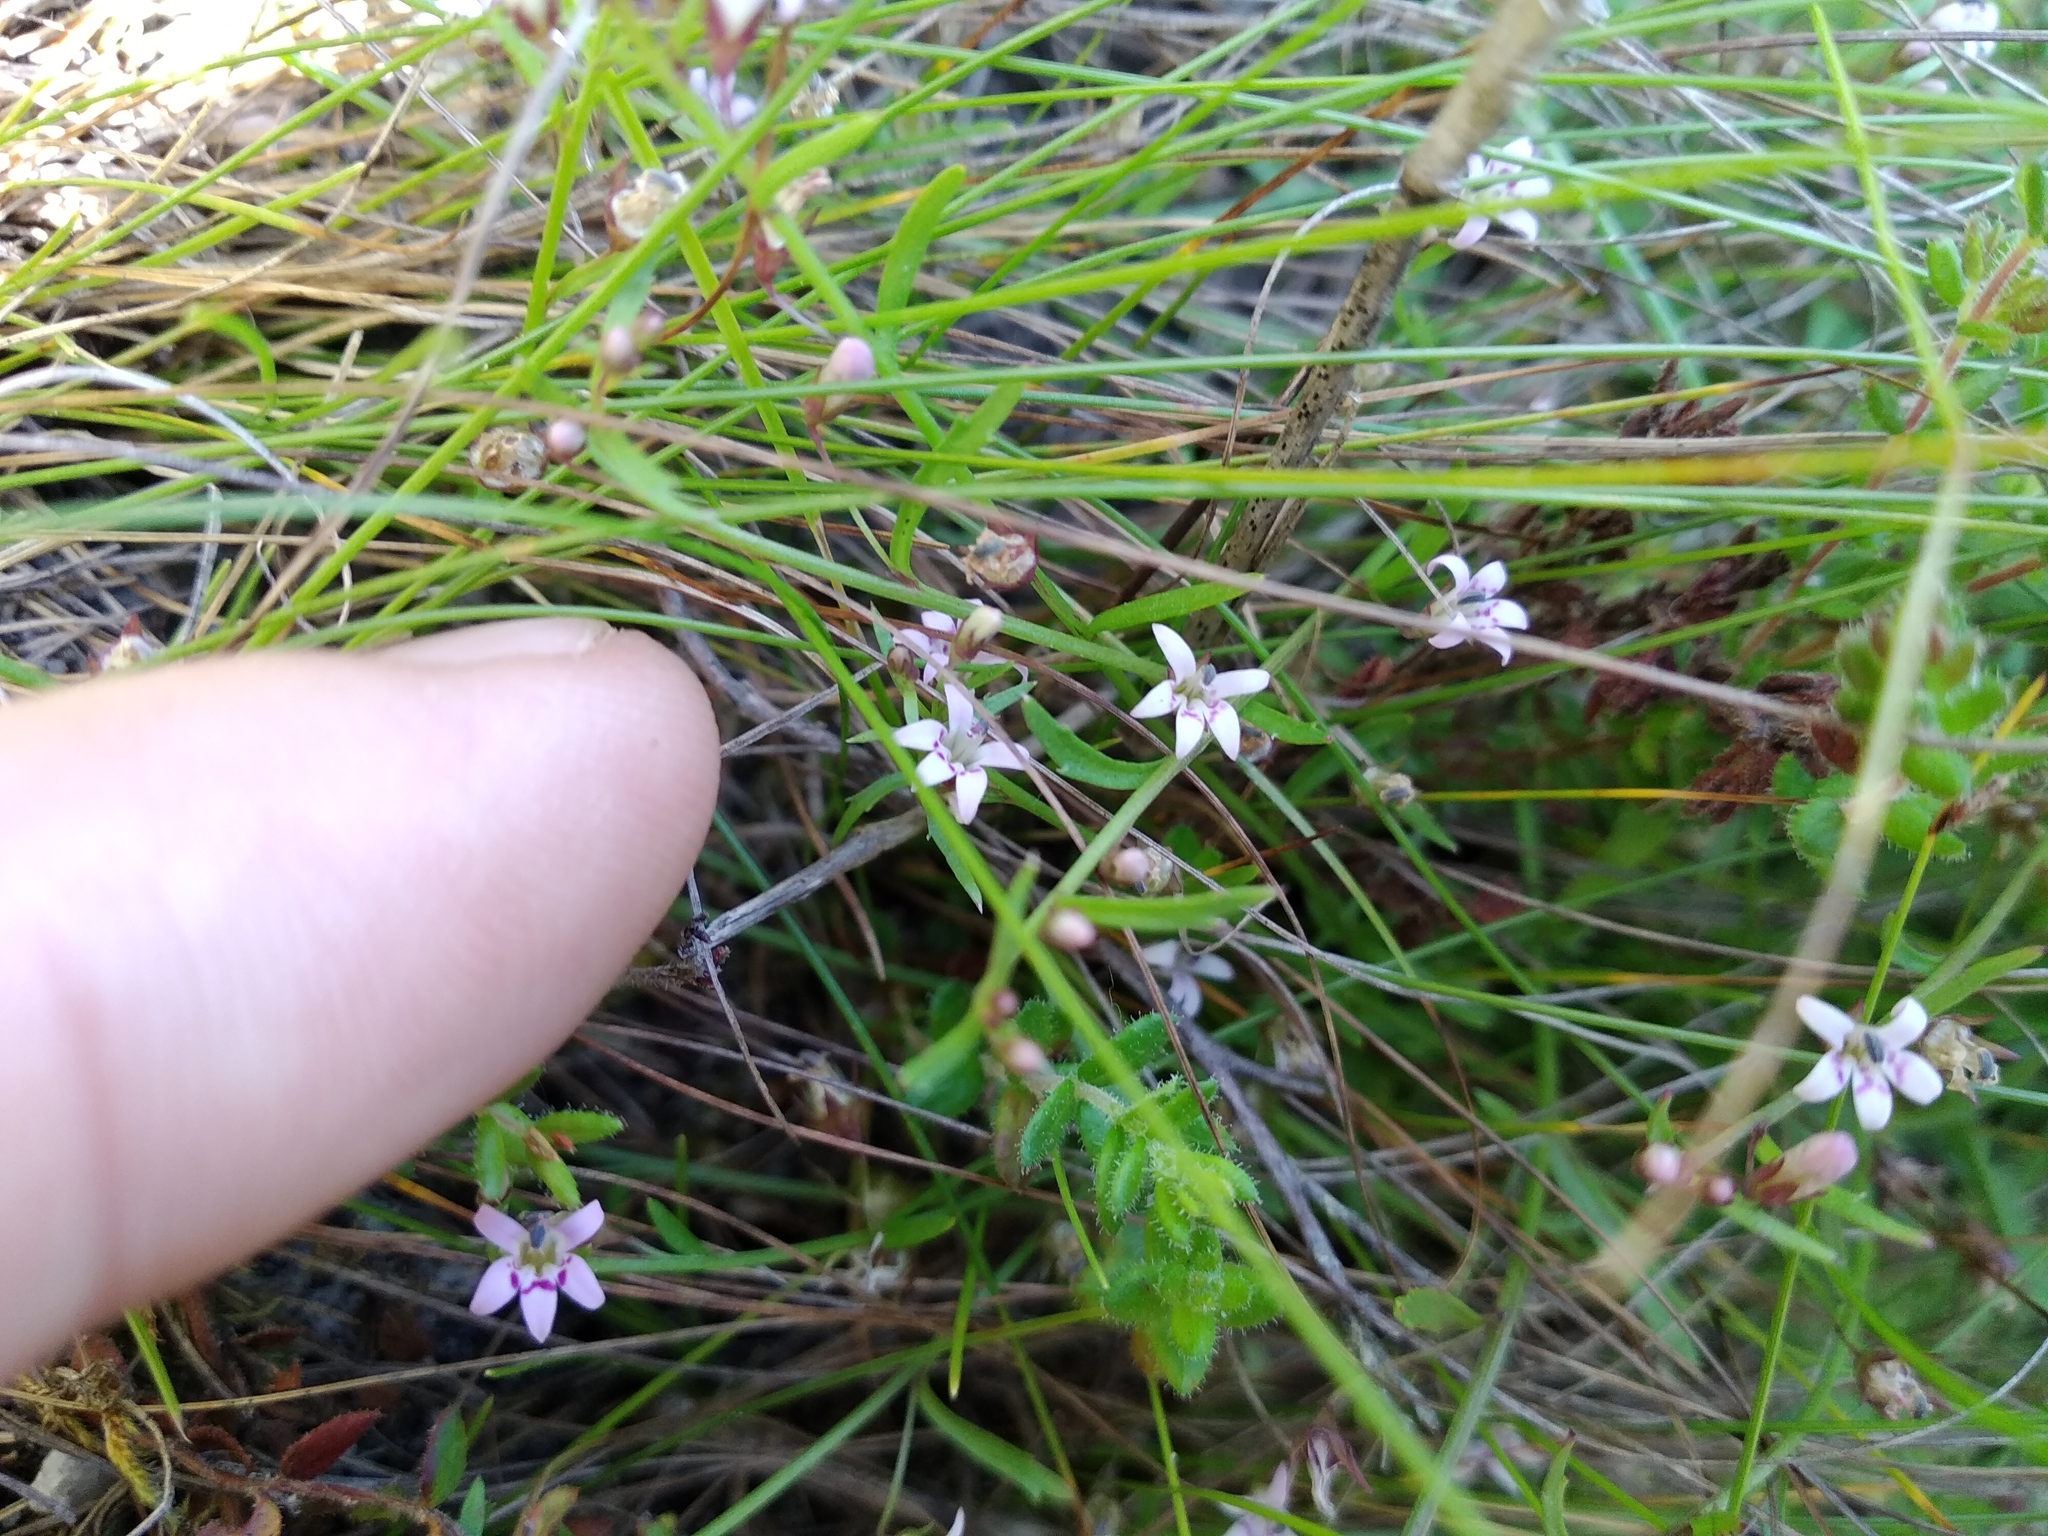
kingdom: Plantae
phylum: Tracheophyta
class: Magnoliopsida
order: Asterales
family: Campanulaceae
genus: Lobelia
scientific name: Lobelia eckloniana
